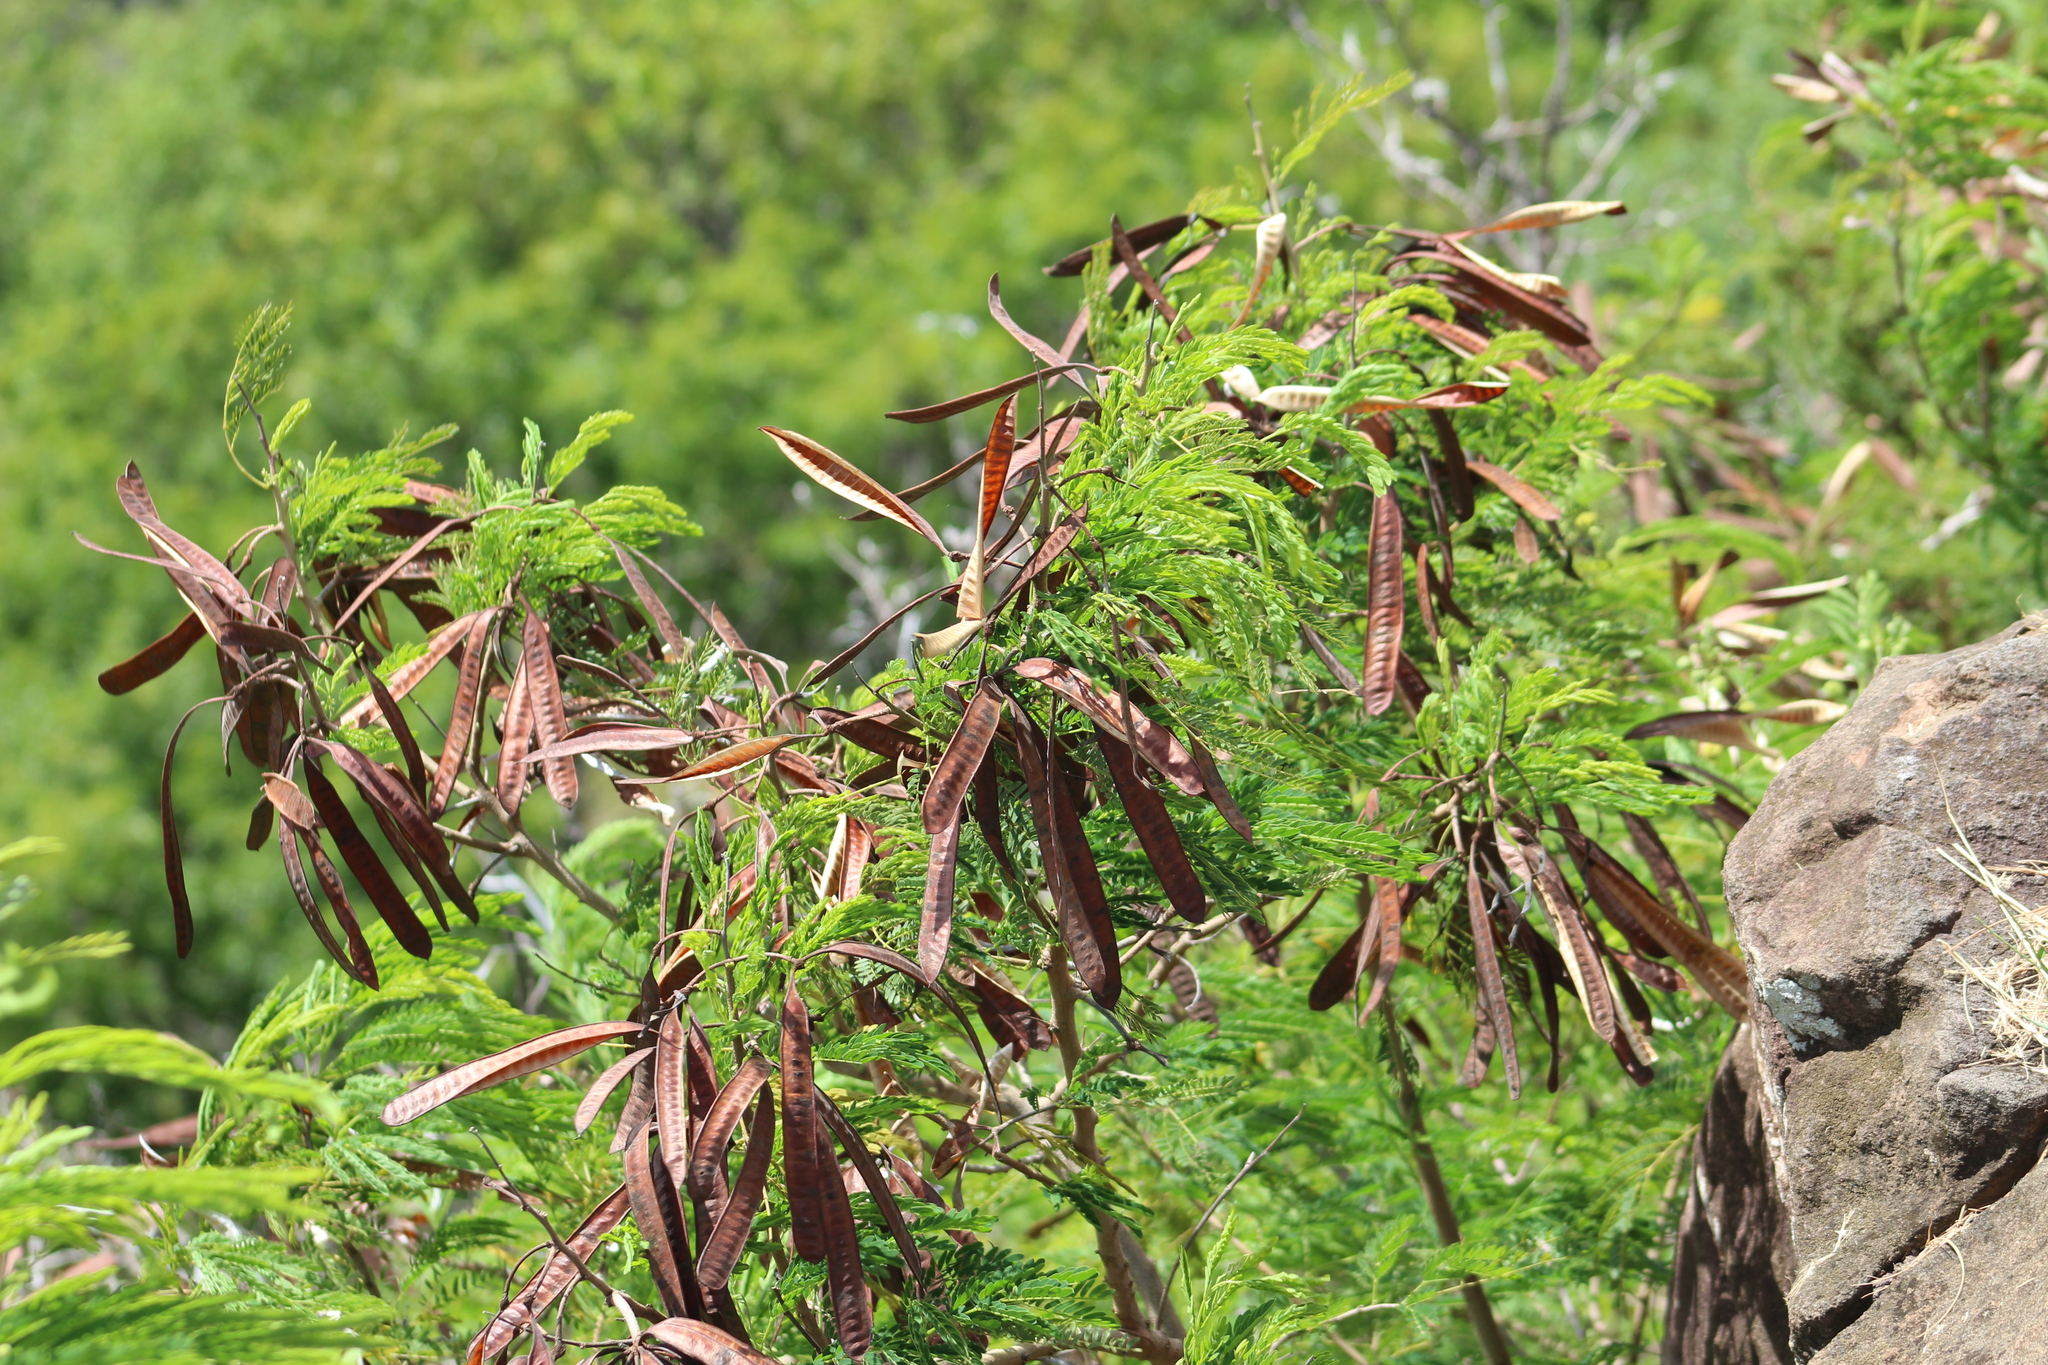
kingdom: Plantae
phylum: Tracheophyta
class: Magnoliopsida
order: Fabales
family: Fabaceae
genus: Leucaena
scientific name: Leucaena leucocephala
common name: White leadtree
